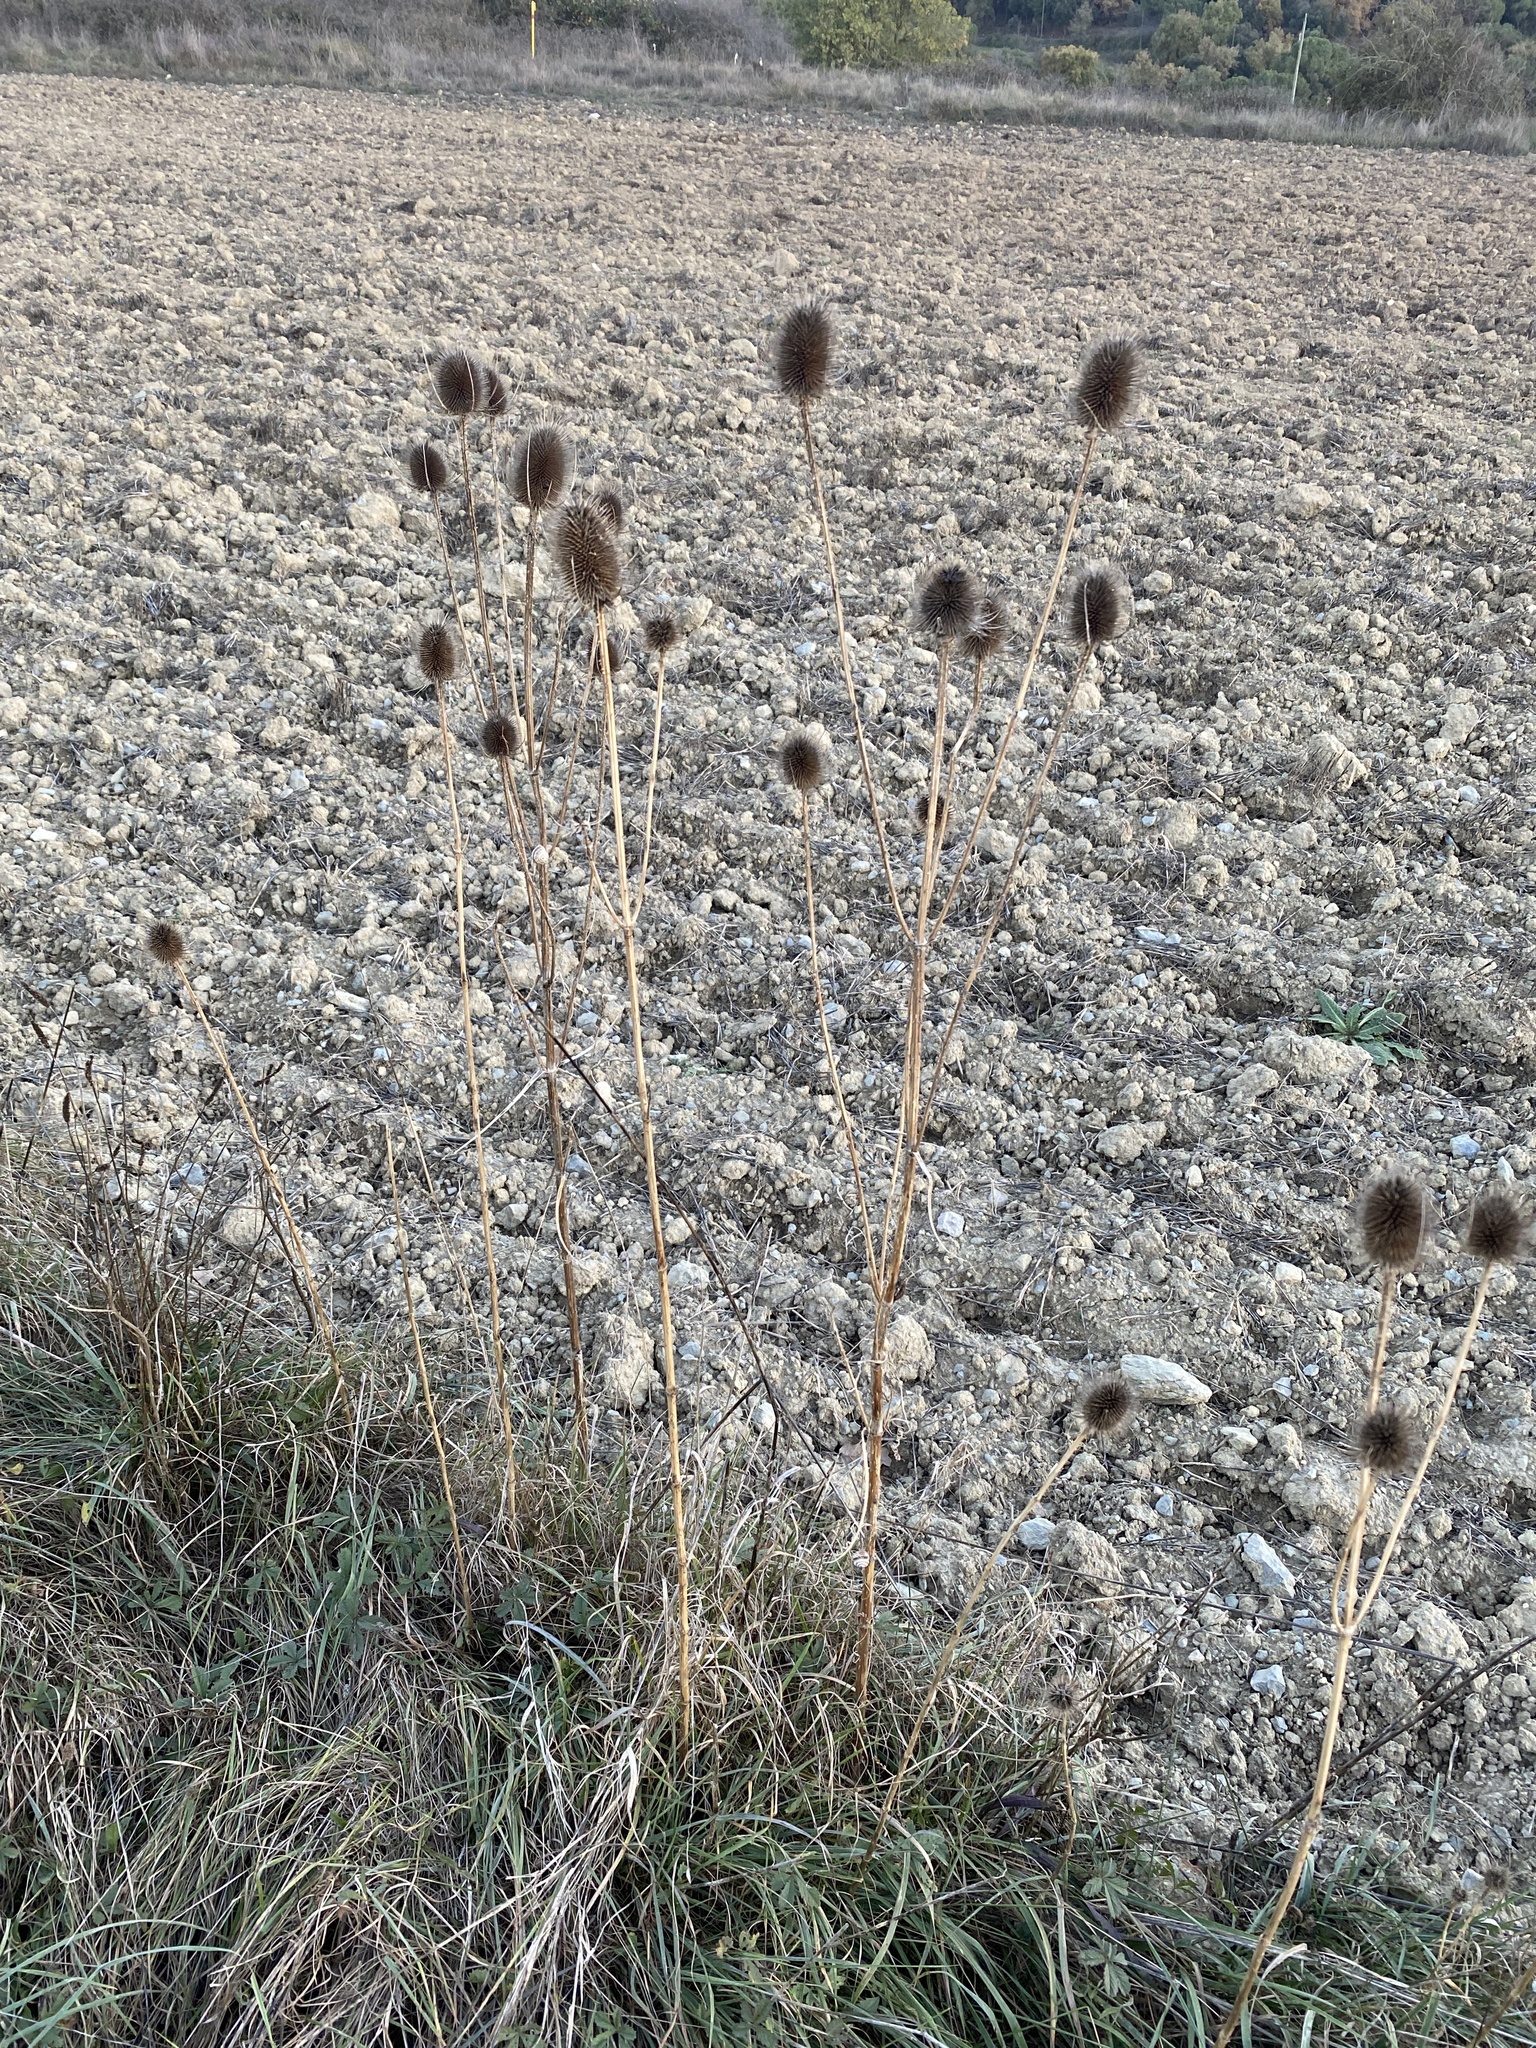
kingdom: Plantae
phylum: Tracheophyta
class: Magnoliopsida
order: Dipsacales
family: Caprifoliaceae
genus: Dipsacus
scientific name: Dipsacus fullonum
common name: Teasel
